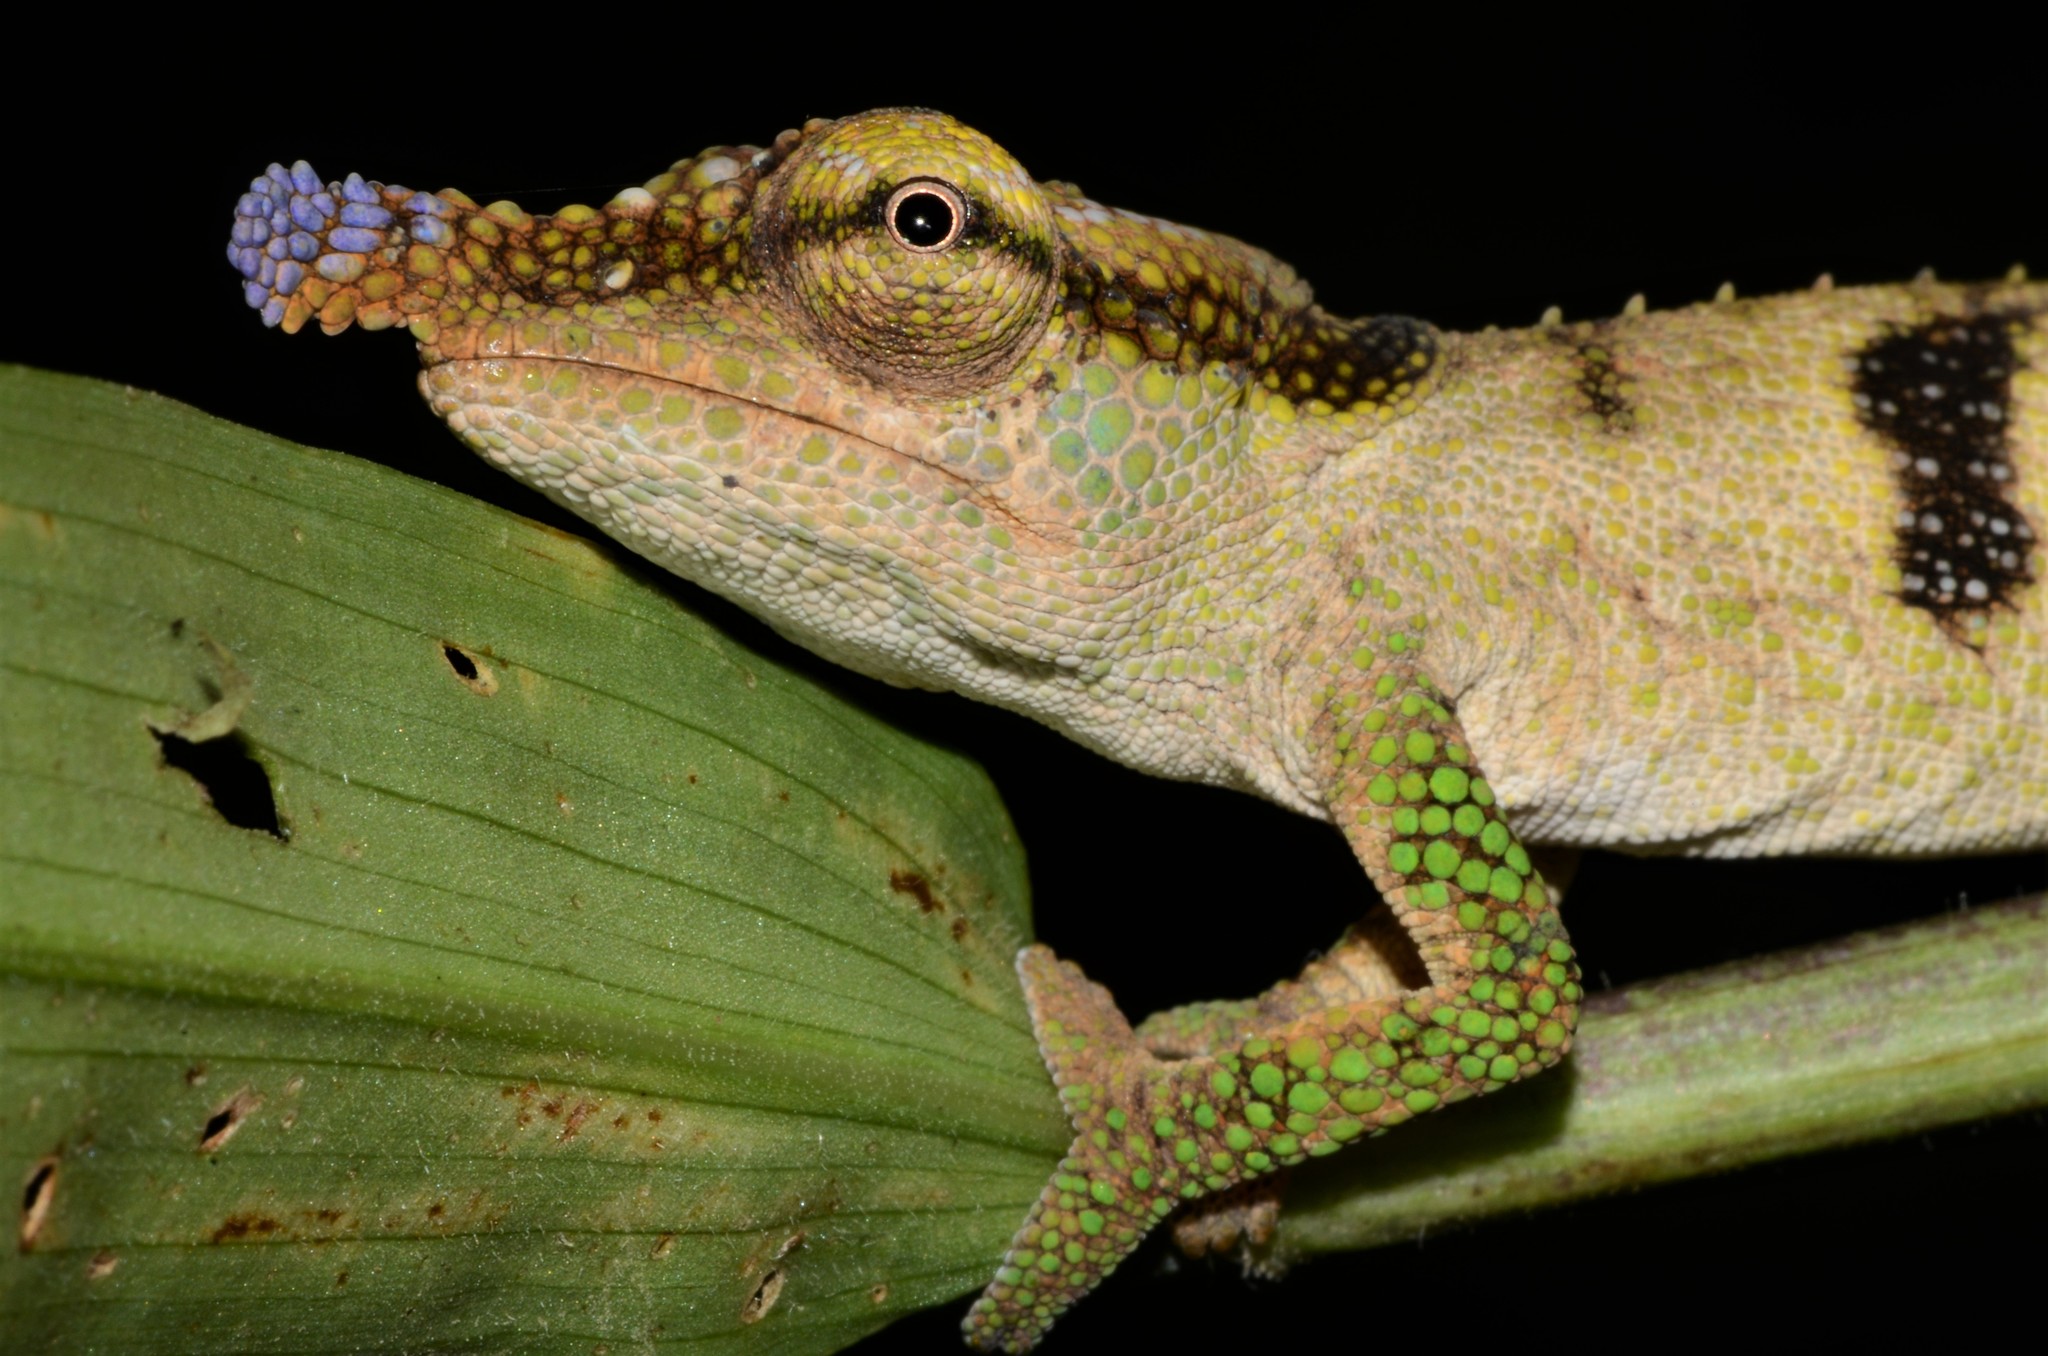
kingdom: Animalia
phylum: Chordata
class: Squamata
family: Chamaeleonidae
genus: Calumma
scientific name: Calumma linotum
